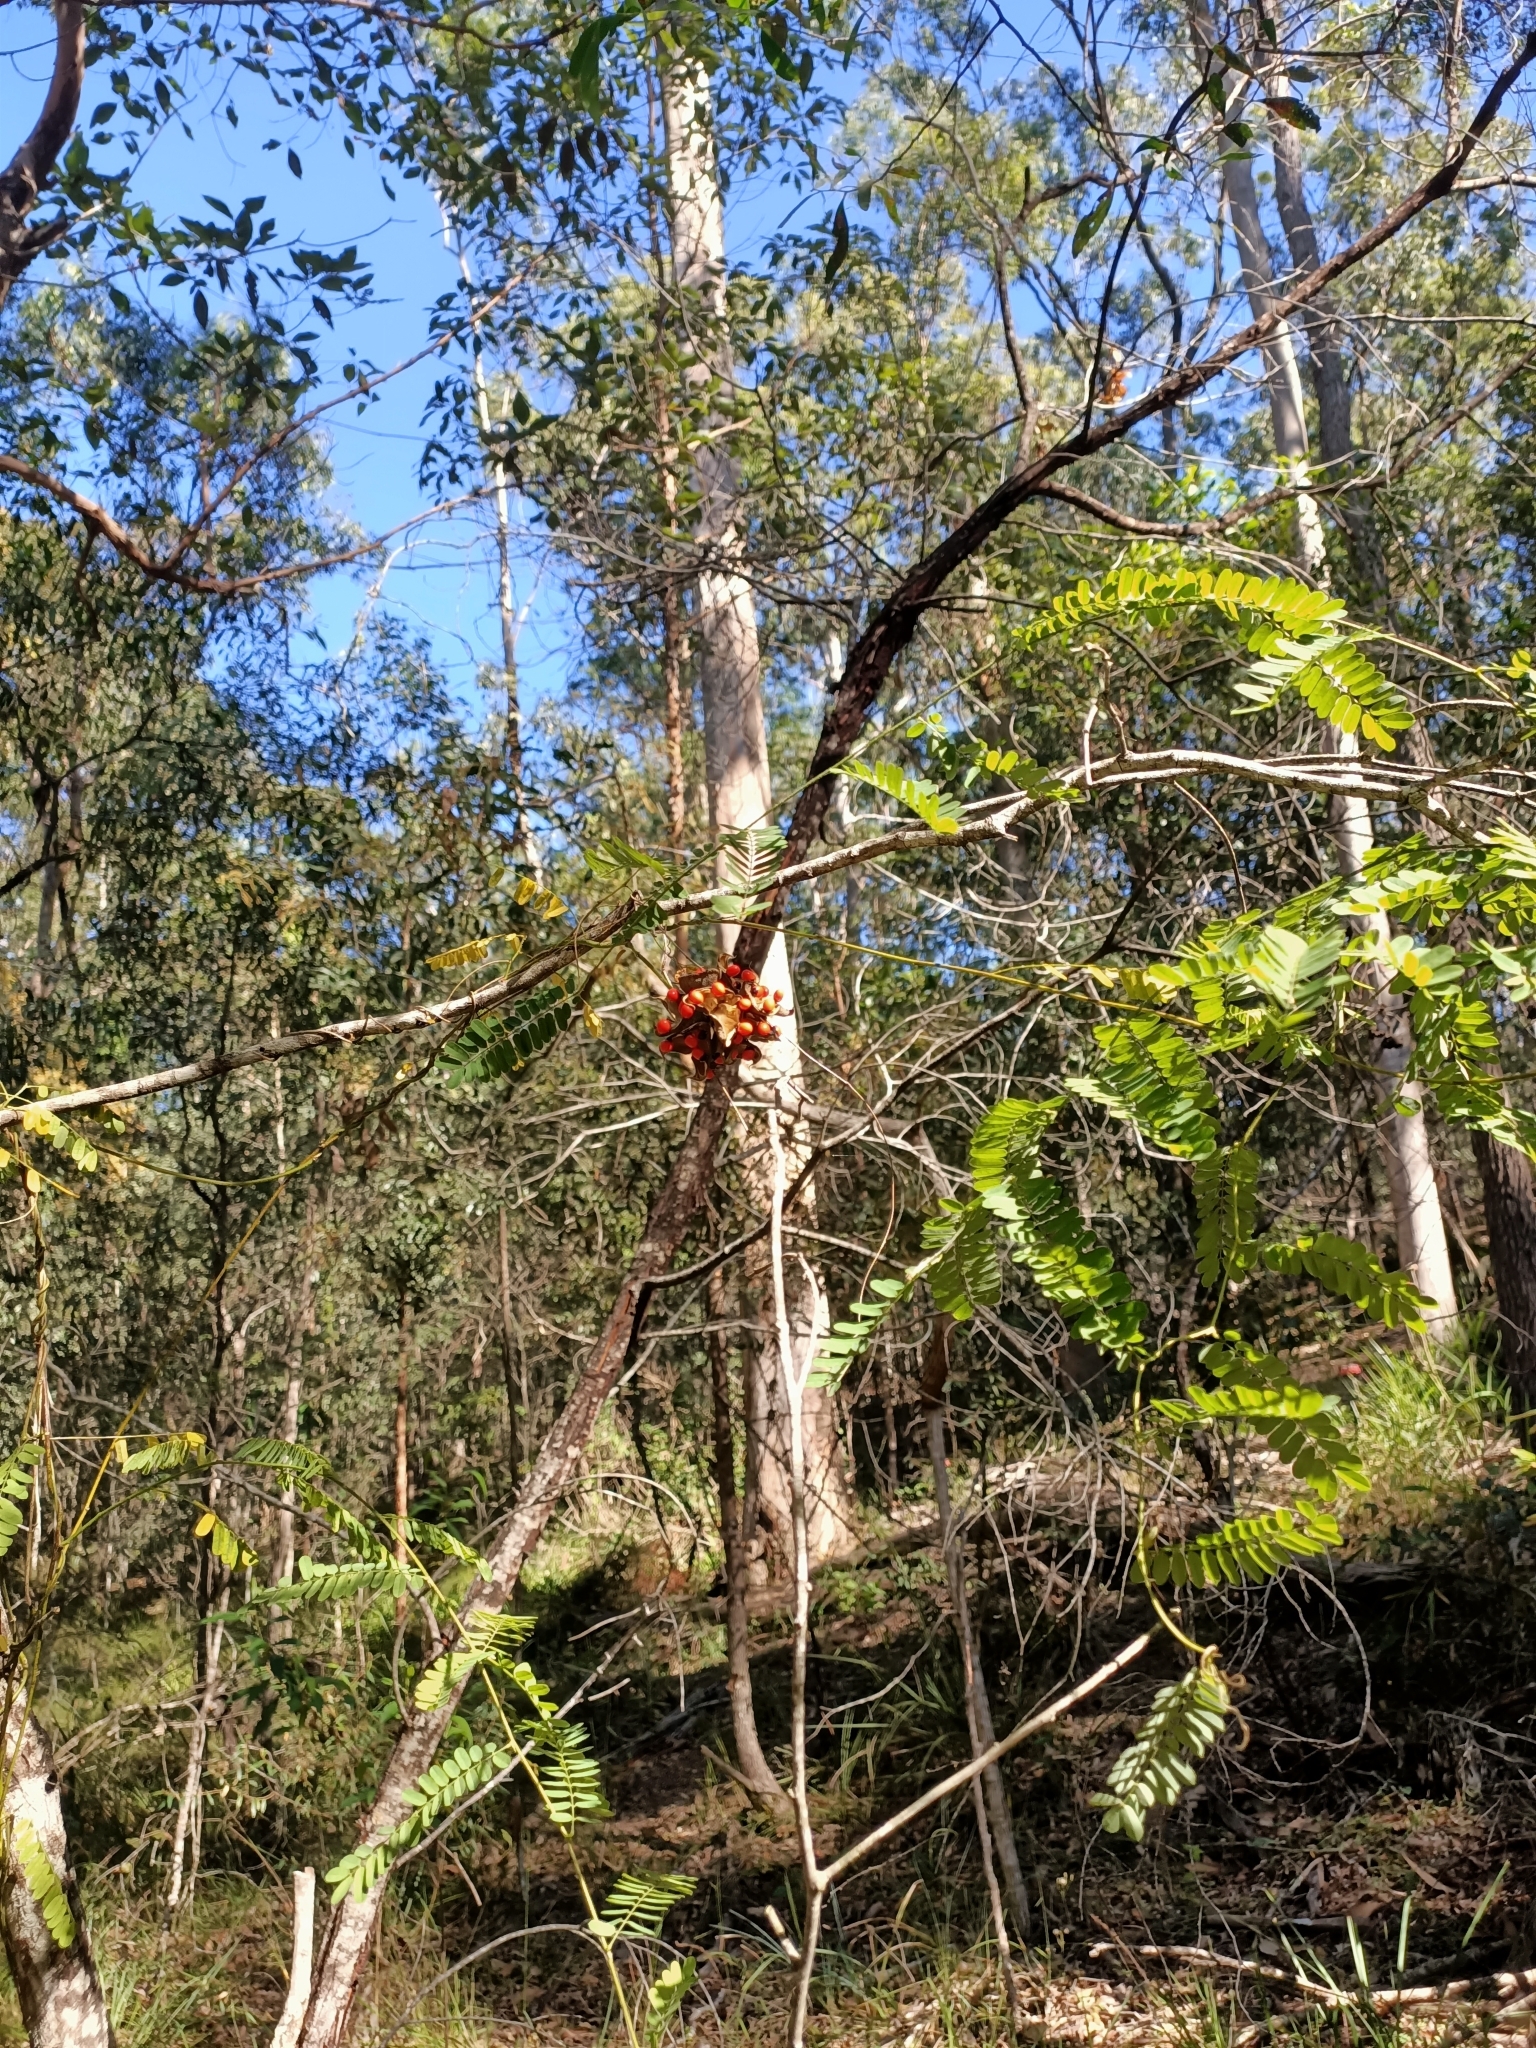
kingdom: Plantae
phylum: Tracheophyta
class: Magnoliopsida
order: Fabales
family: Fabaceae
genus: Abrus
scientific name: Abrus precatorius
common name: Rosarypea
